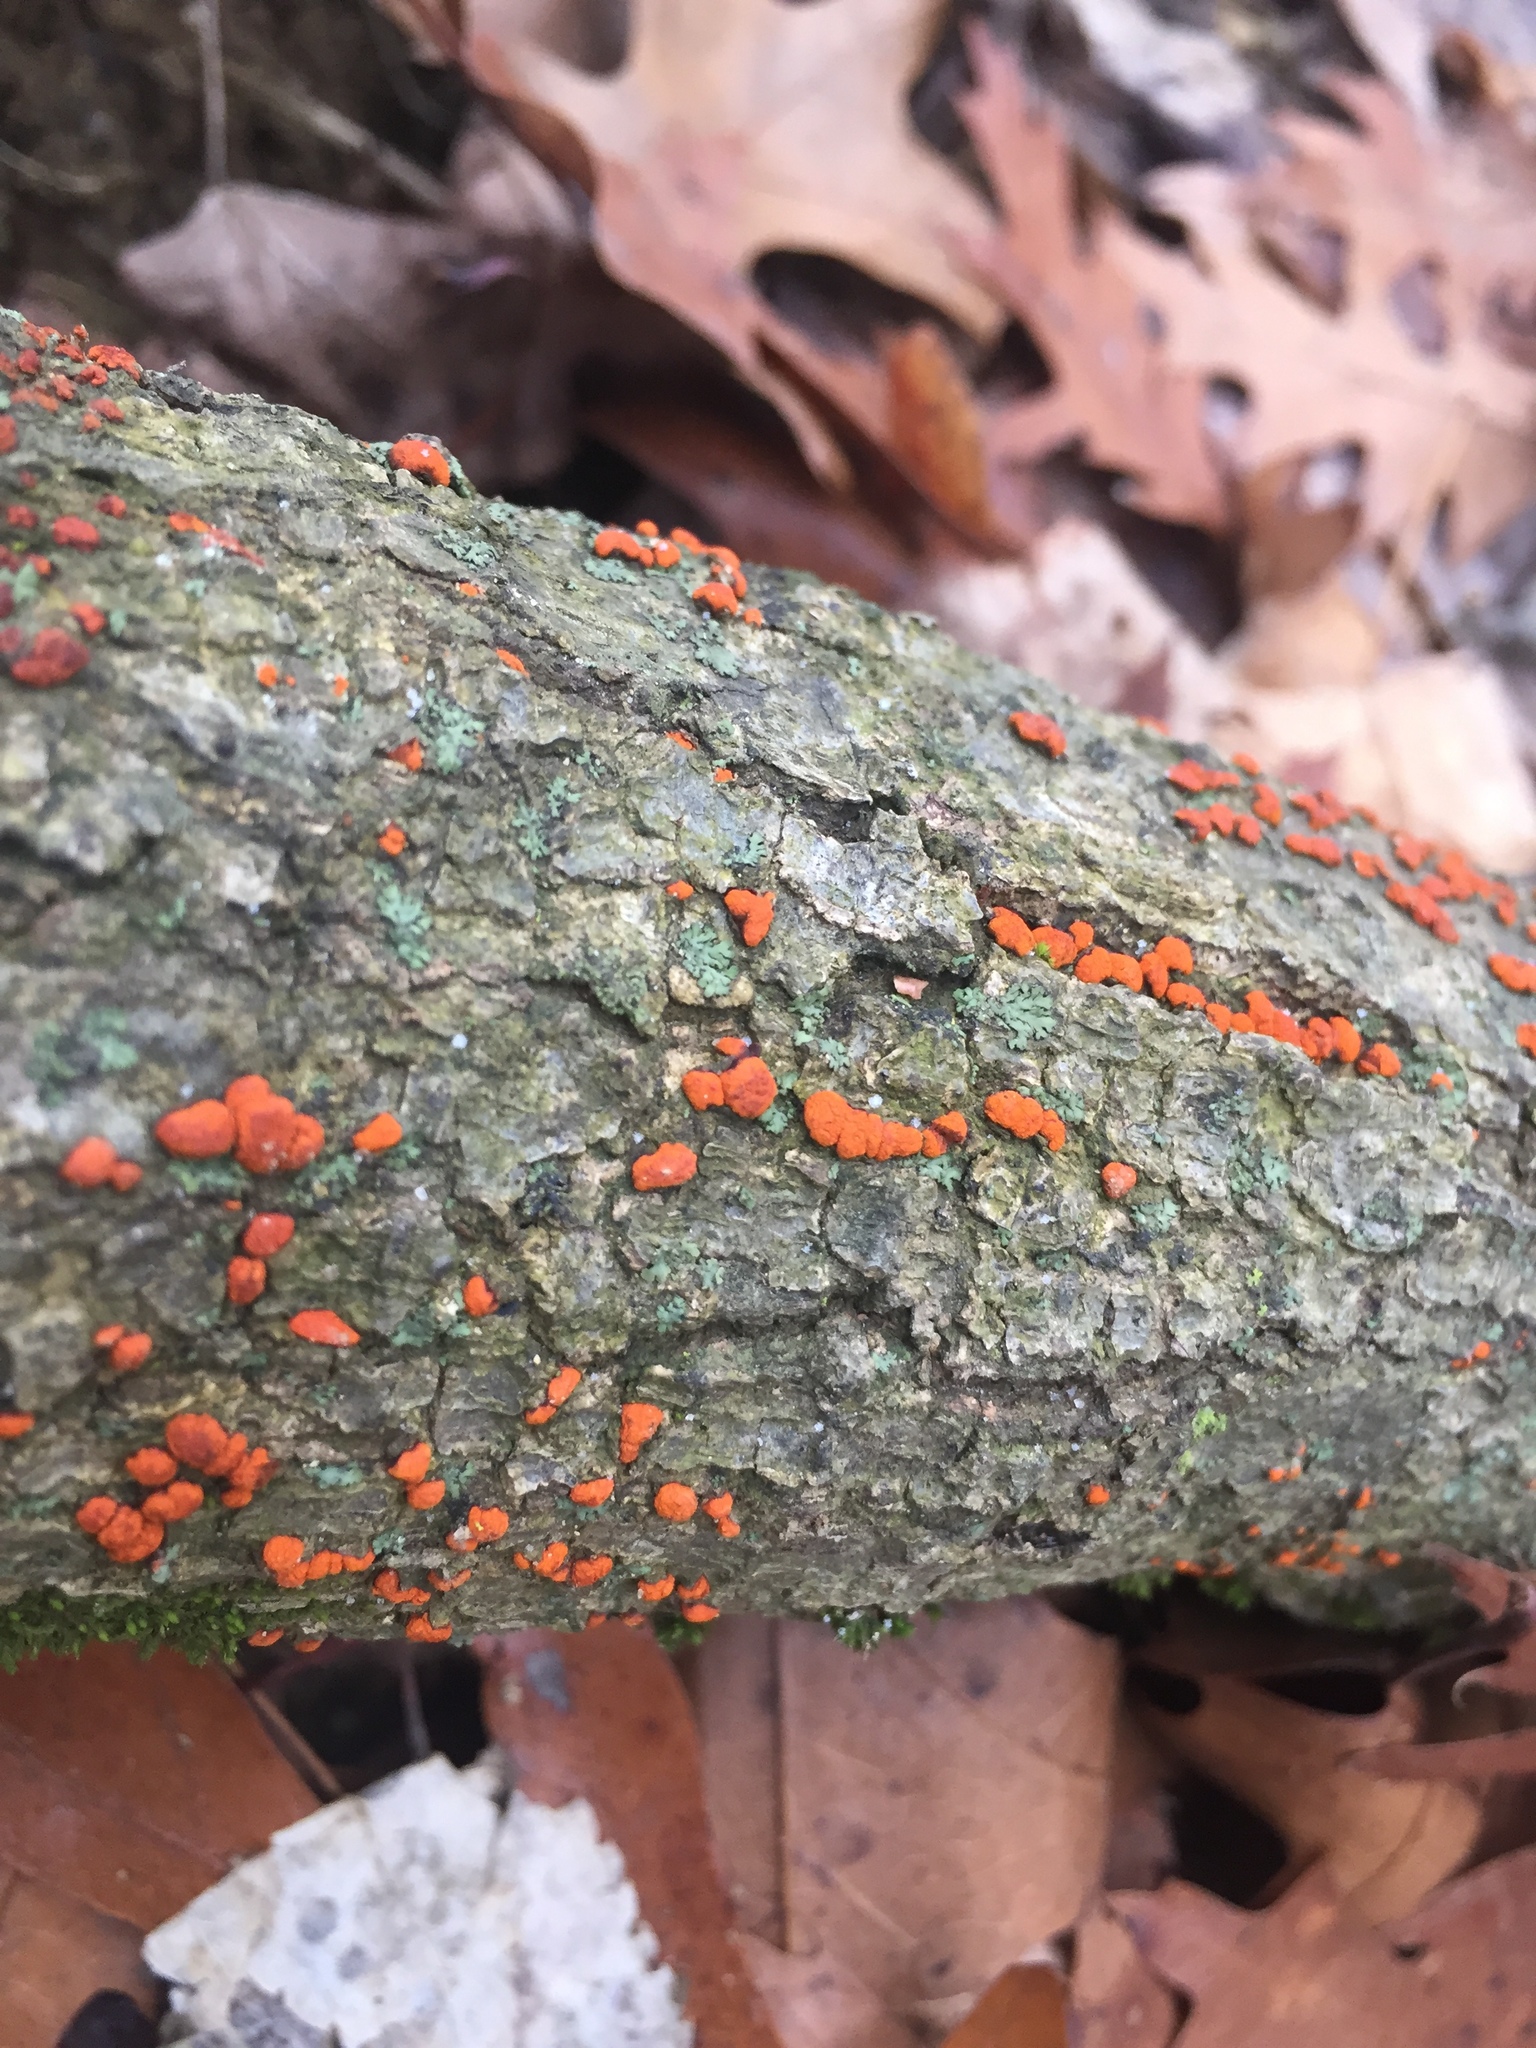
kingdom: Fungi
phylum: Ascomycota
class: Sordariomycetes
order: Diaporthales
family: Cryphonectriaceae
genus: Amphilogia
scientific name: Amphilogia gyrosa
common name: Orange hobnail canker
